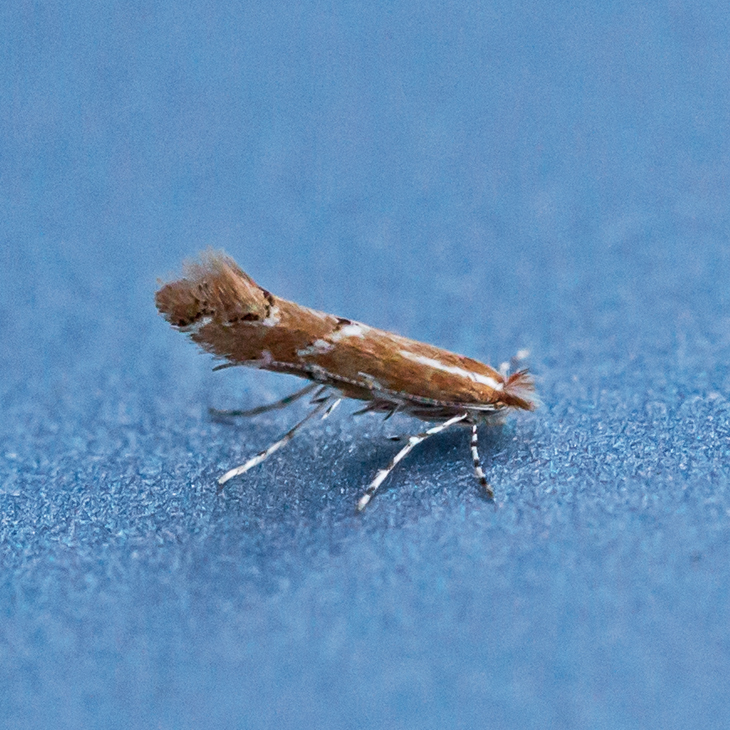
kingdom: Animalia
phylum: Arthropoda
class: Insecta
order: Lepidoptera
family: Gracillariidae
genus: Cremastobombycia
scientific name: Cremastobombycia solidaginis
